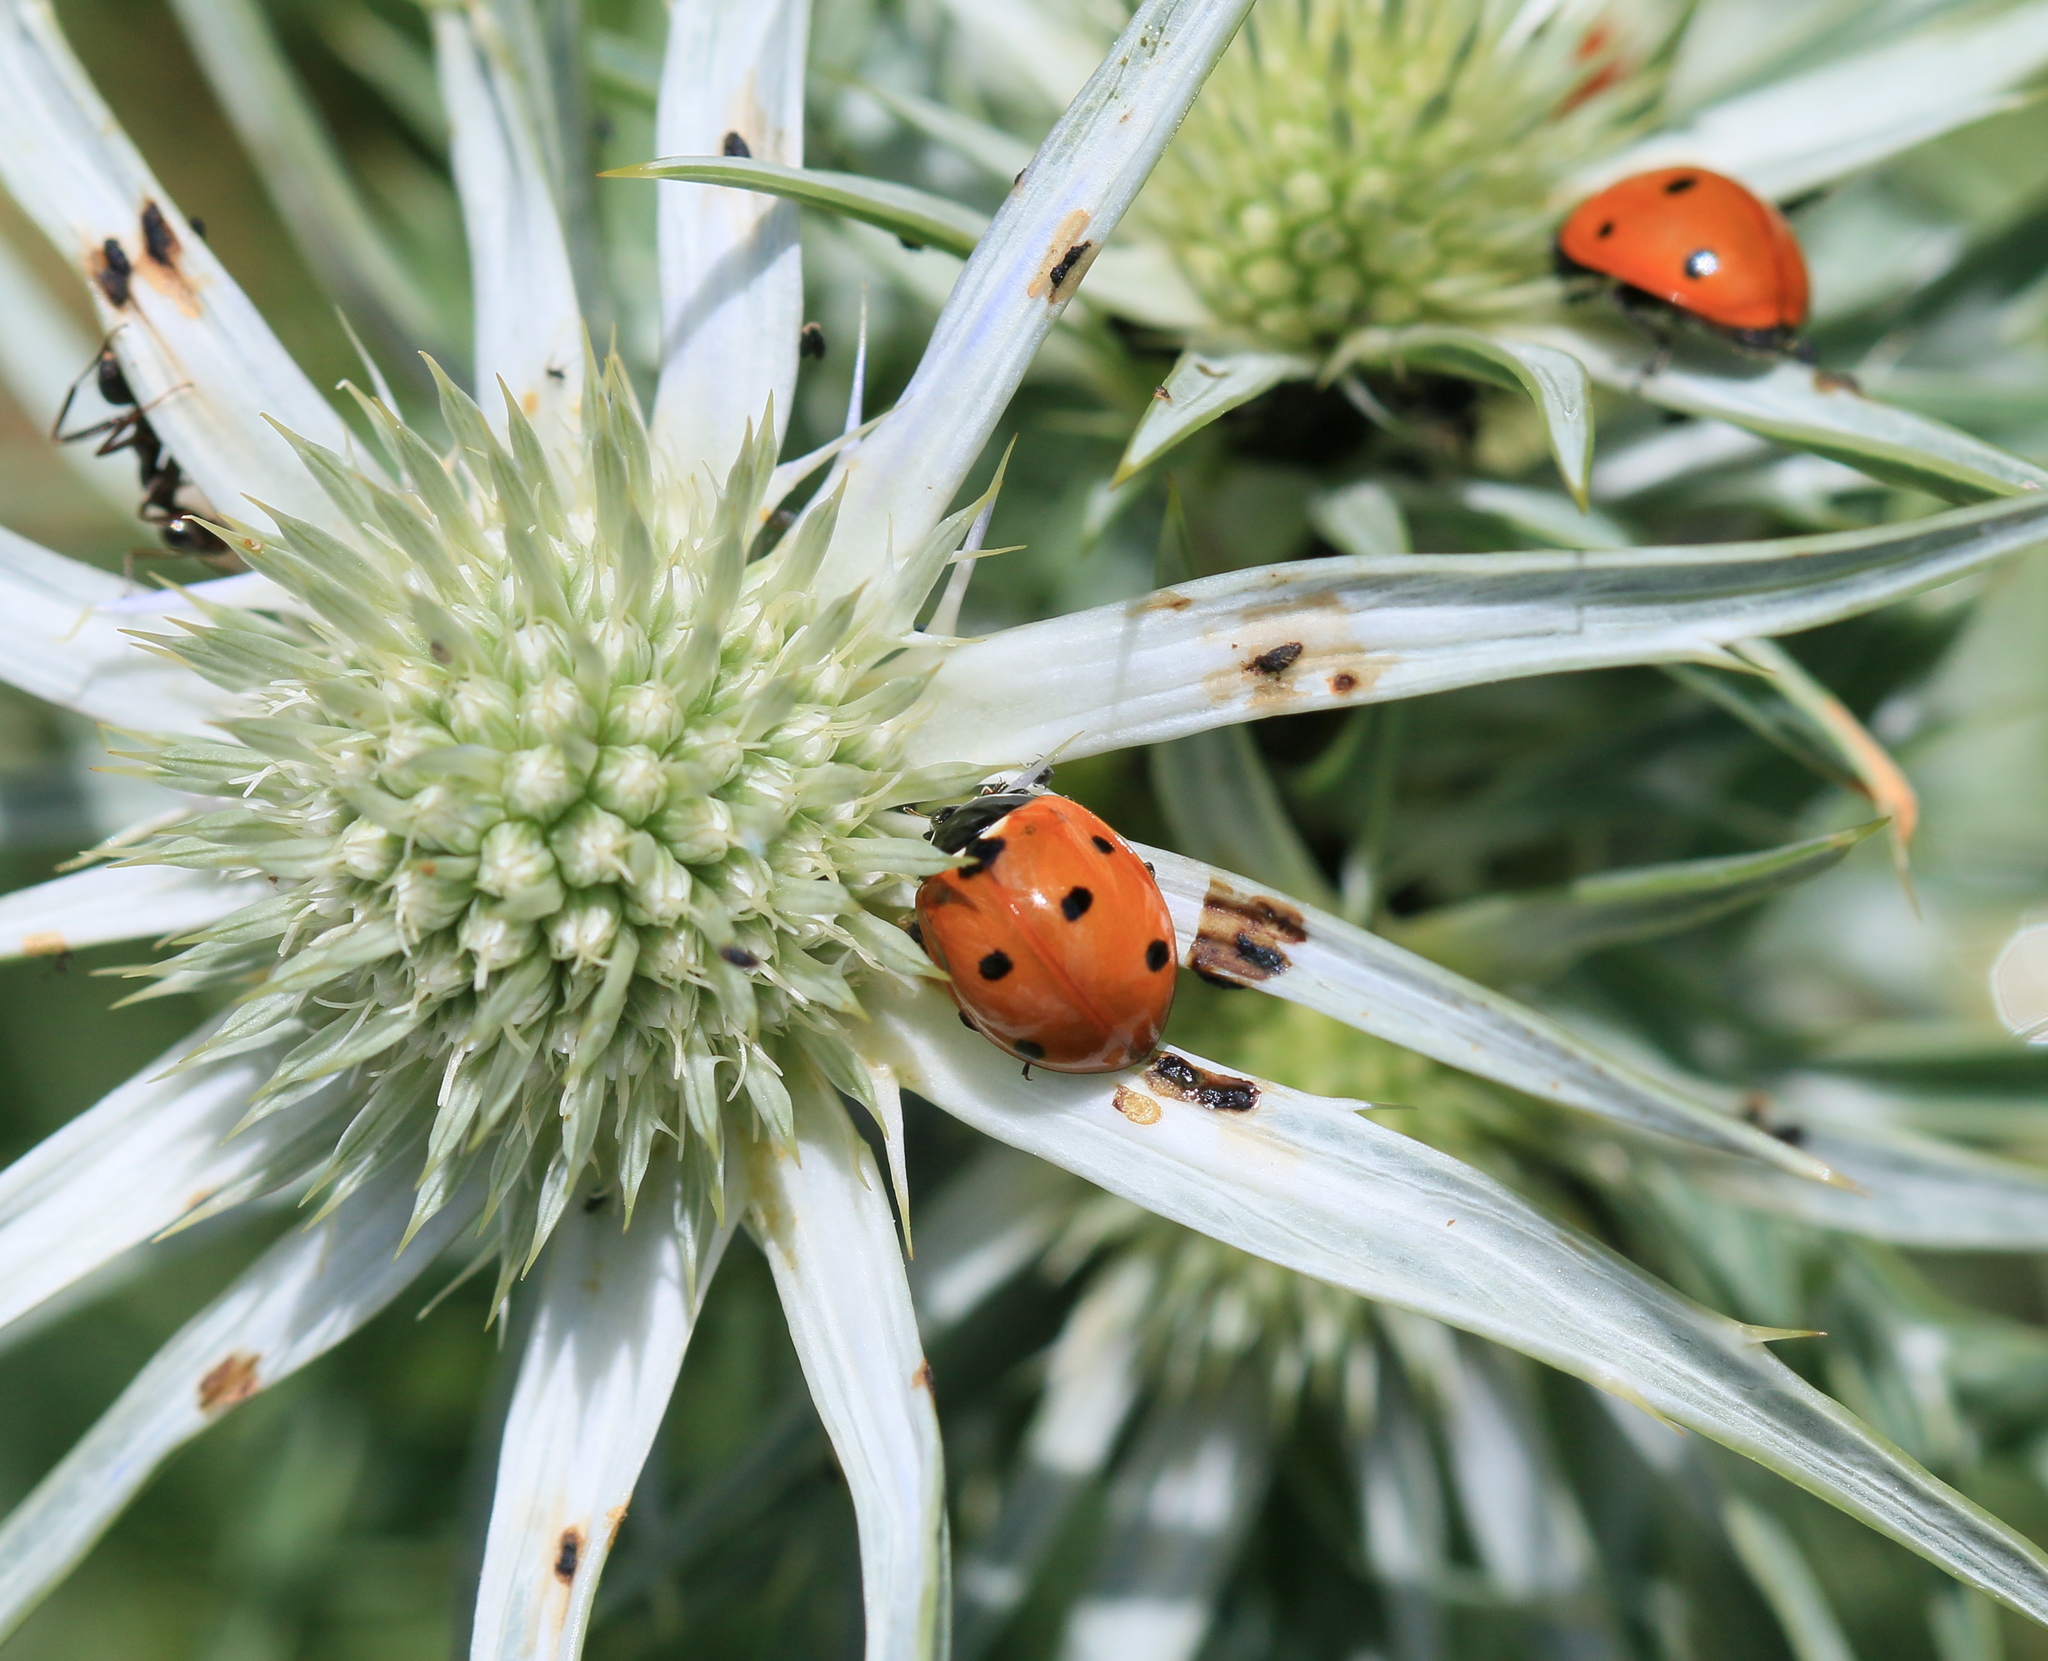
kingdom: Plantae
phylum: Tracheophyta
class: Magnoliopsida
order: Apiales
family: Apiaceae
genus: Eryngium
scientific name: Eryngium bourgatii
